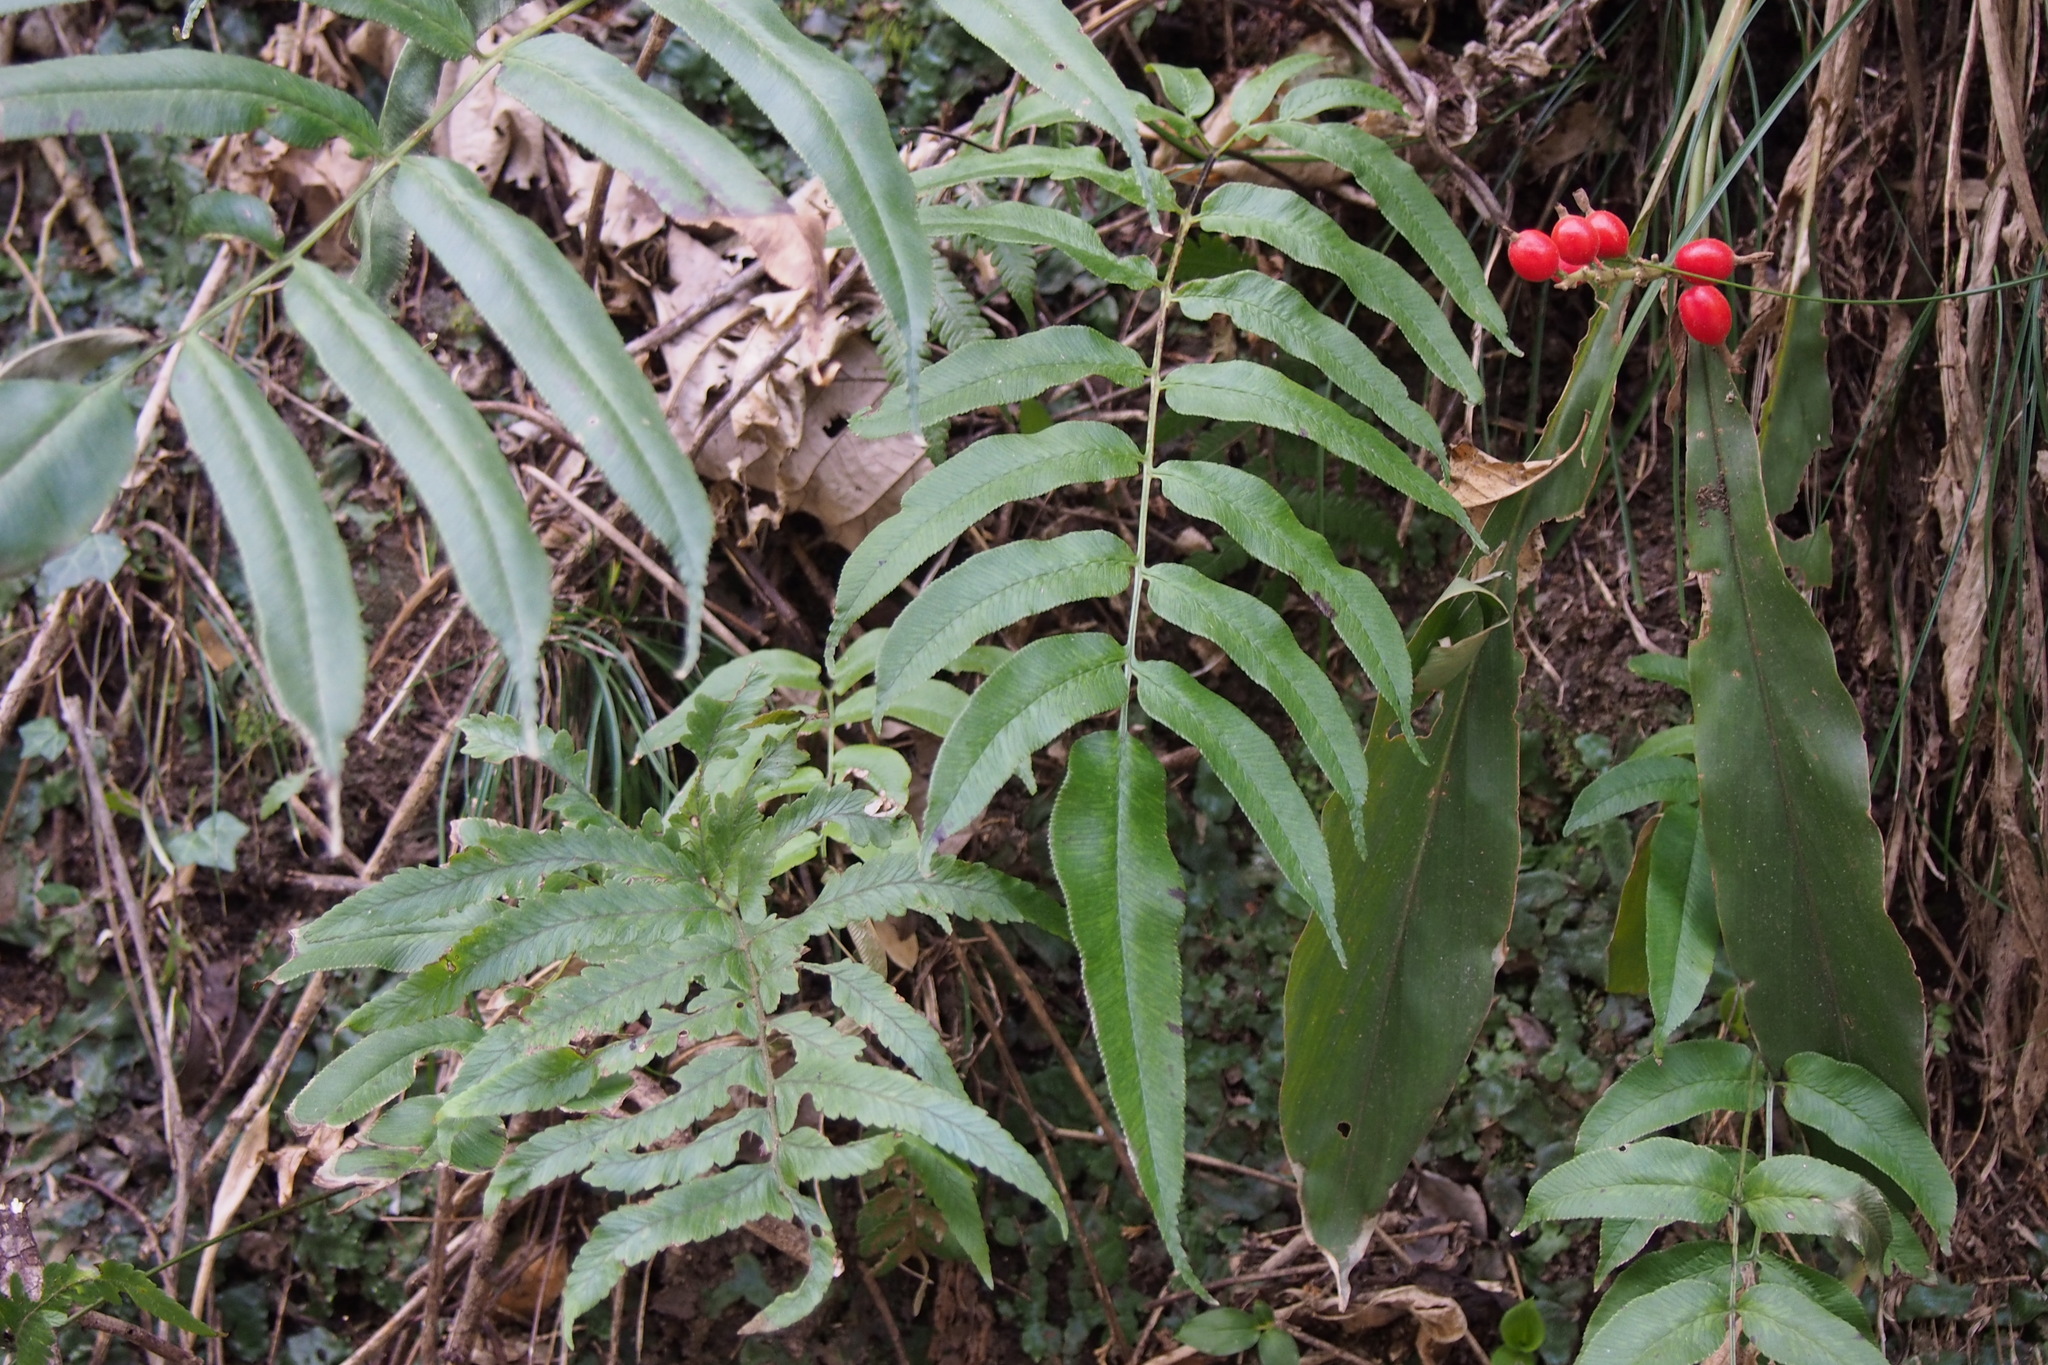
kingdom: Plantae
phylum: Tracheophyta
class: Polypodiopsida
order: Polypodiales
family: Pteridaceae
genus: Coniogramme
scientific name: Coniogramme intermedia
